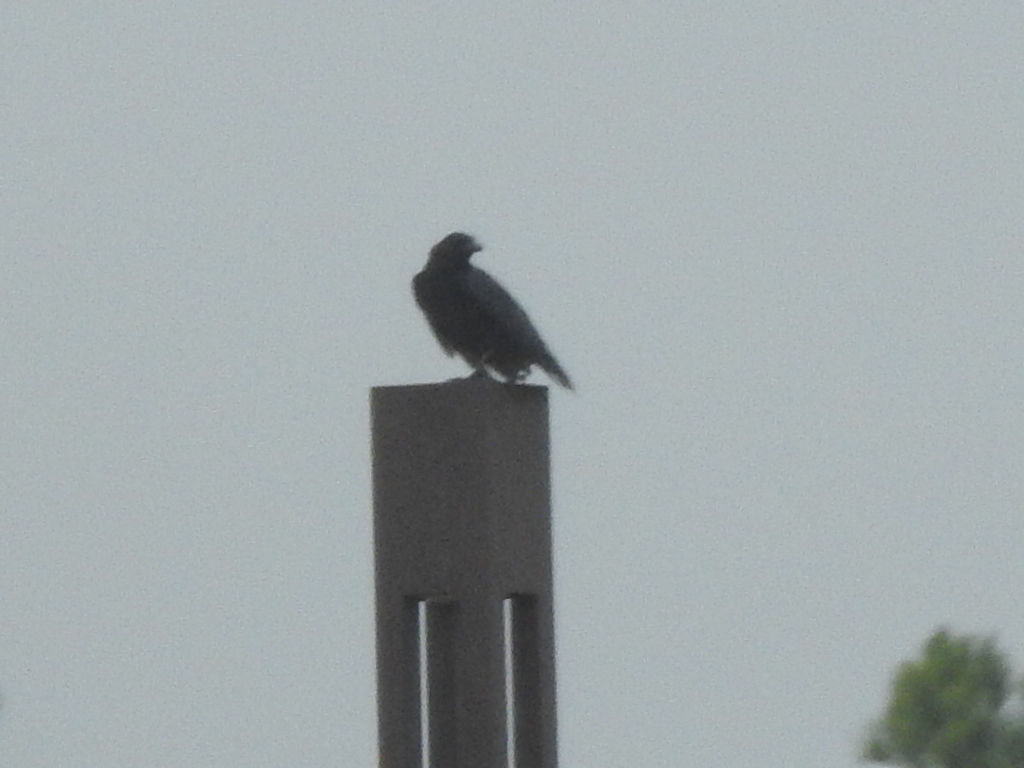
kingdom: Animalia
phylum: Chordata
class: Aves
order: Passeriformes
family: Corvidae
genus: Corvus
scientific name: Corvus brachyrhynchos
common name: American crow
